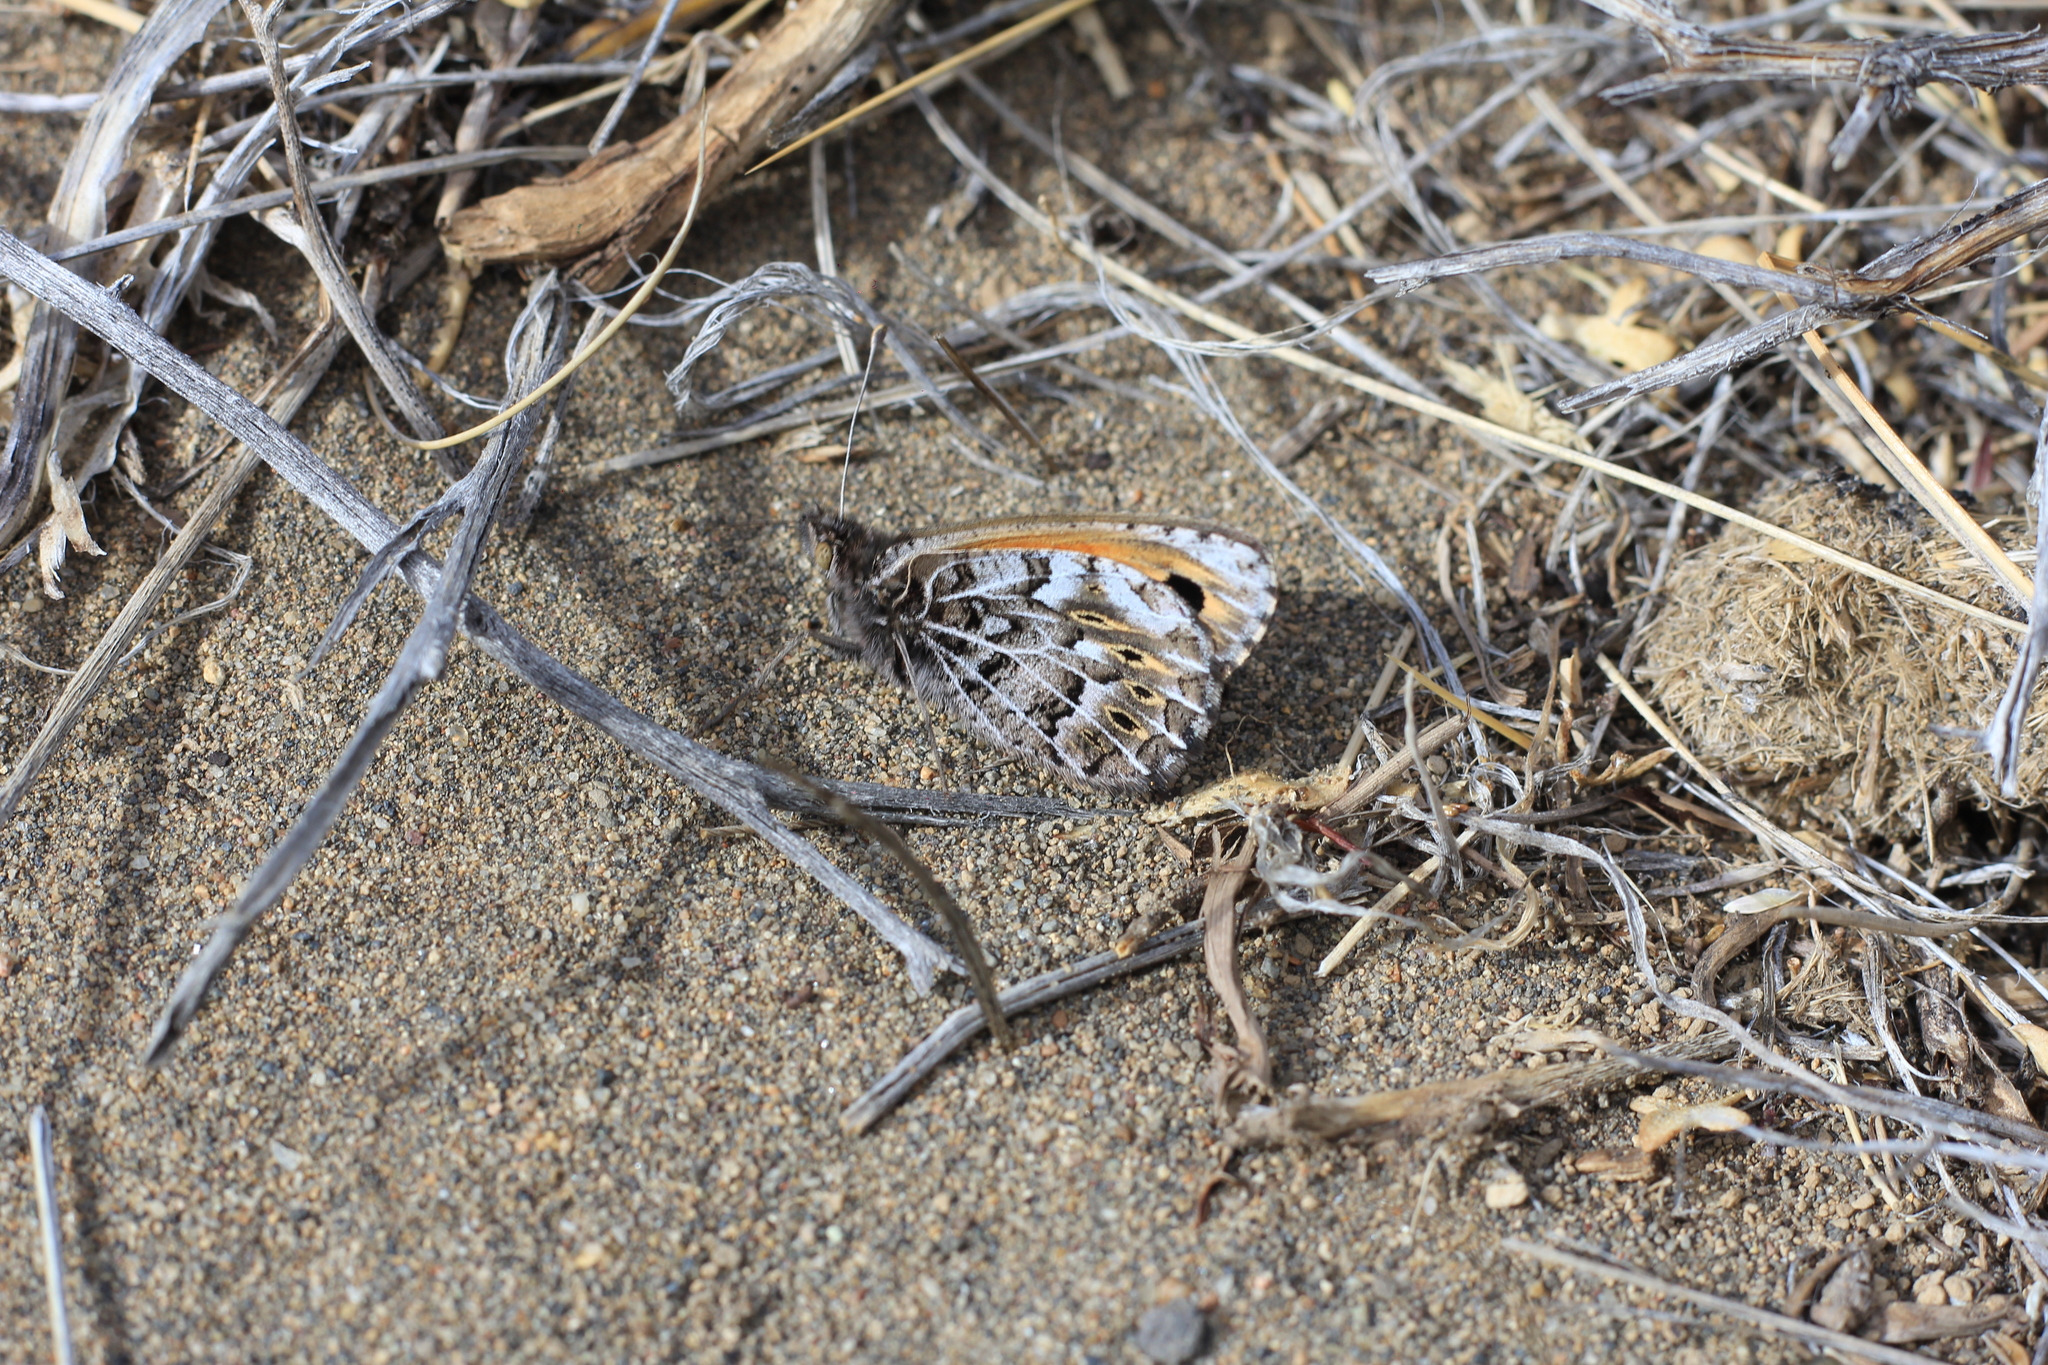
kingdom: Animalia
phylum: Arthropoda
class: Insecta
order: Lepidoptera
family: Nymphalidae
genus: Argyrophorus
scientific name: Argyrophorus
